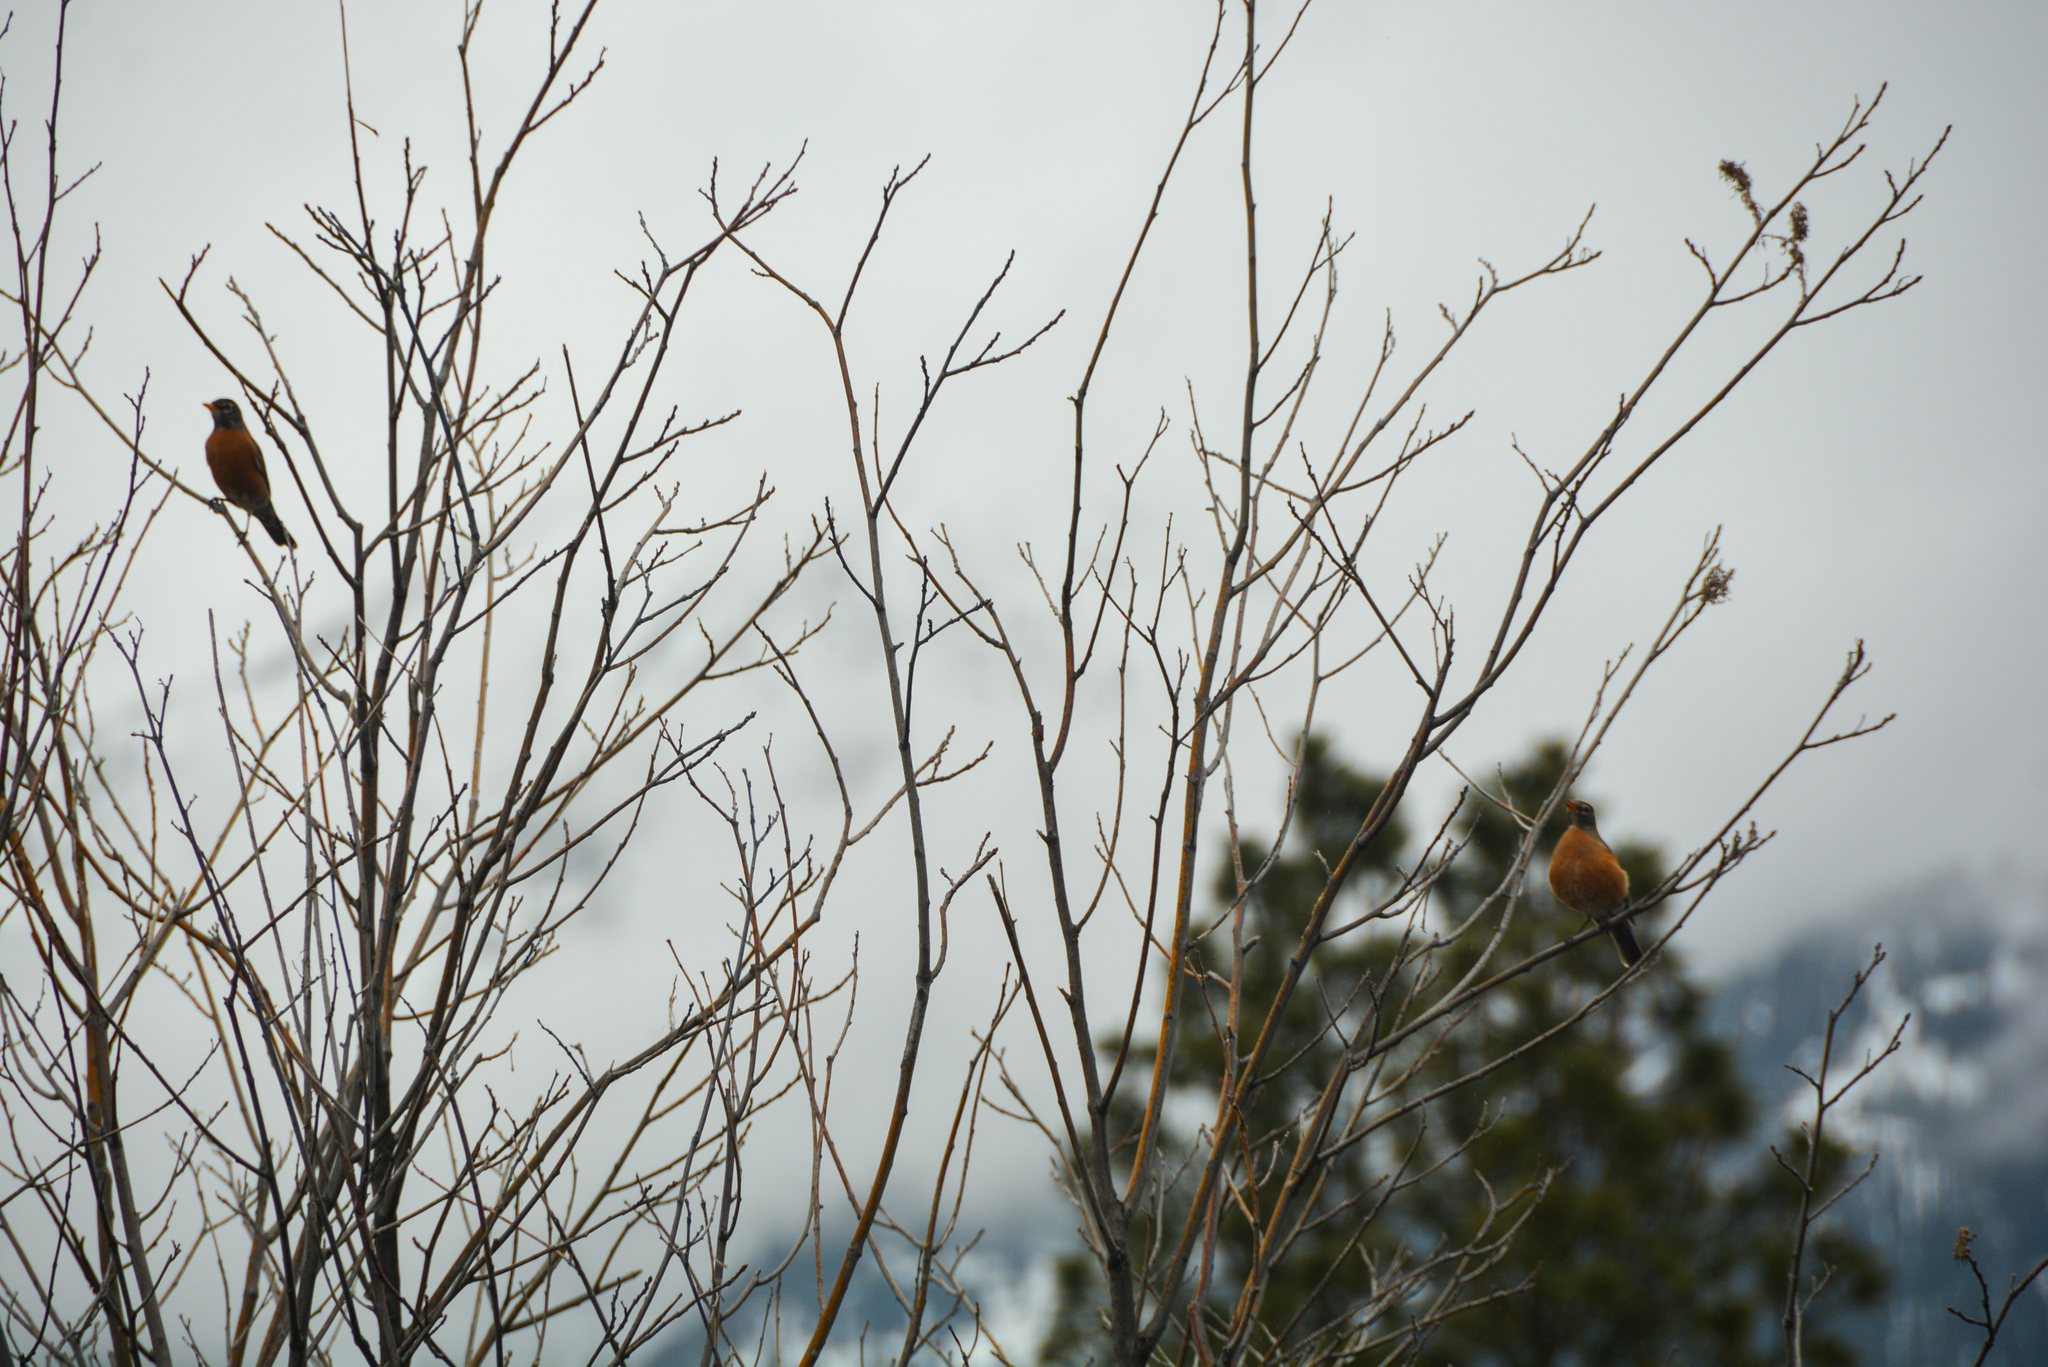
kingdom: Animalia
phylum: Chordata
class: Aves
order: Passeriformes
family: Turdidae
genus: Turdus
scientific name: Turdus migratorius
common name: American robin
